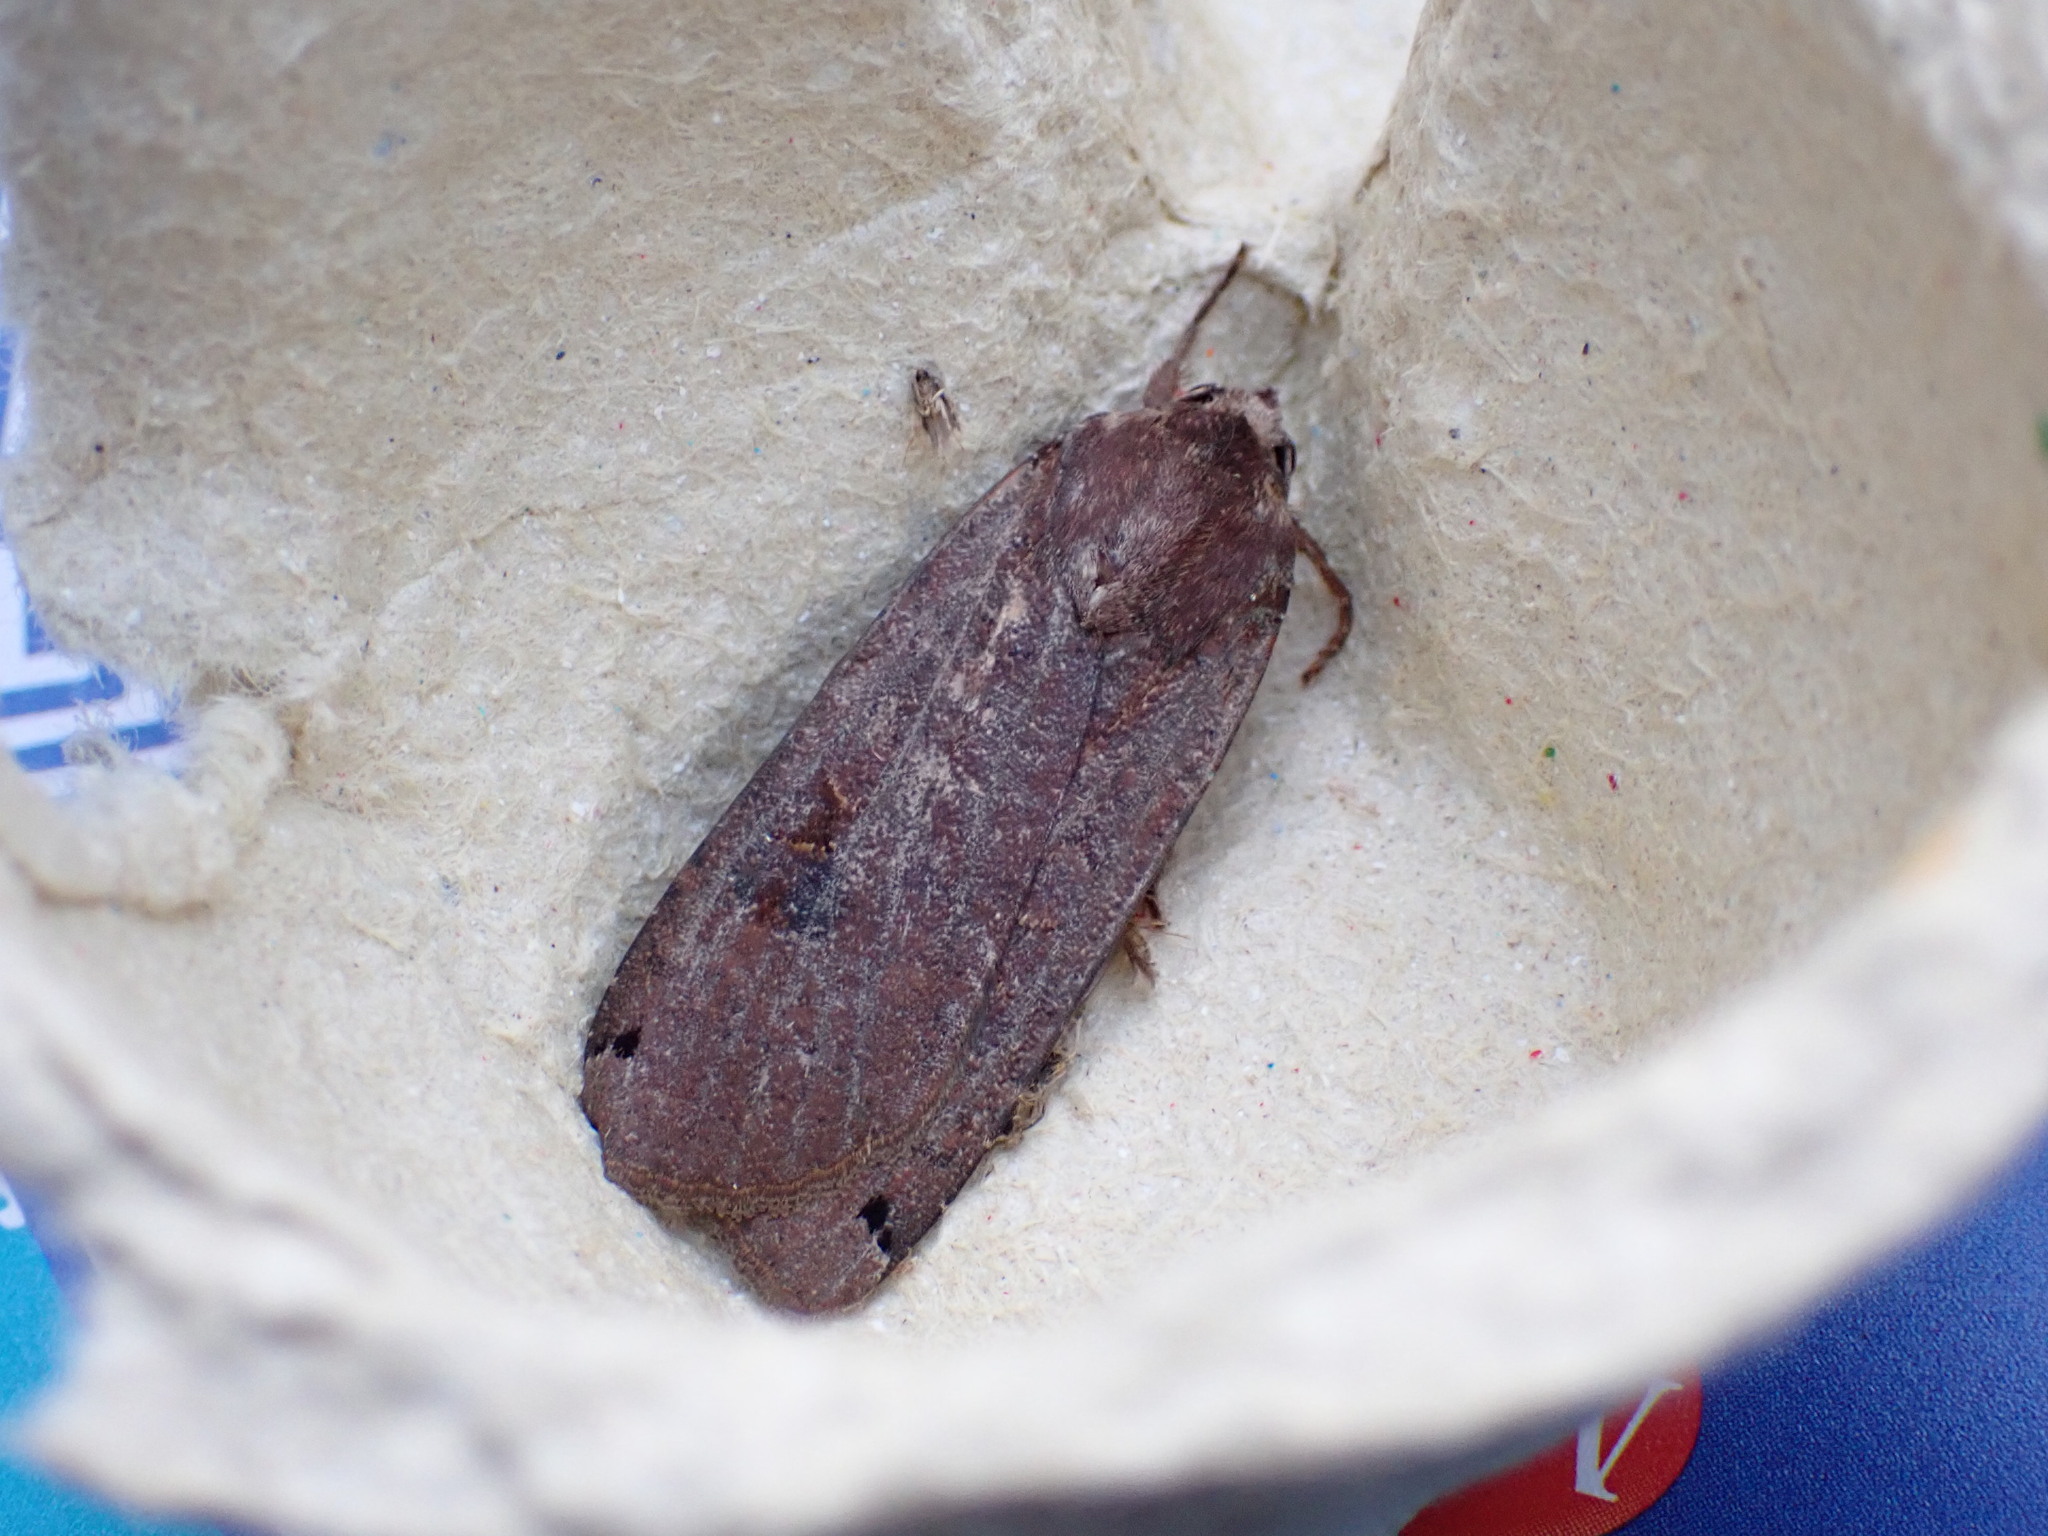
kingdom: Animalia
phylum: Arthropoda
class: Insecta
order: Lepidoptera
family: Noctuidae
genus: Noctua
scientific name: Noctua pronuba
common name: Large yellow underwing
